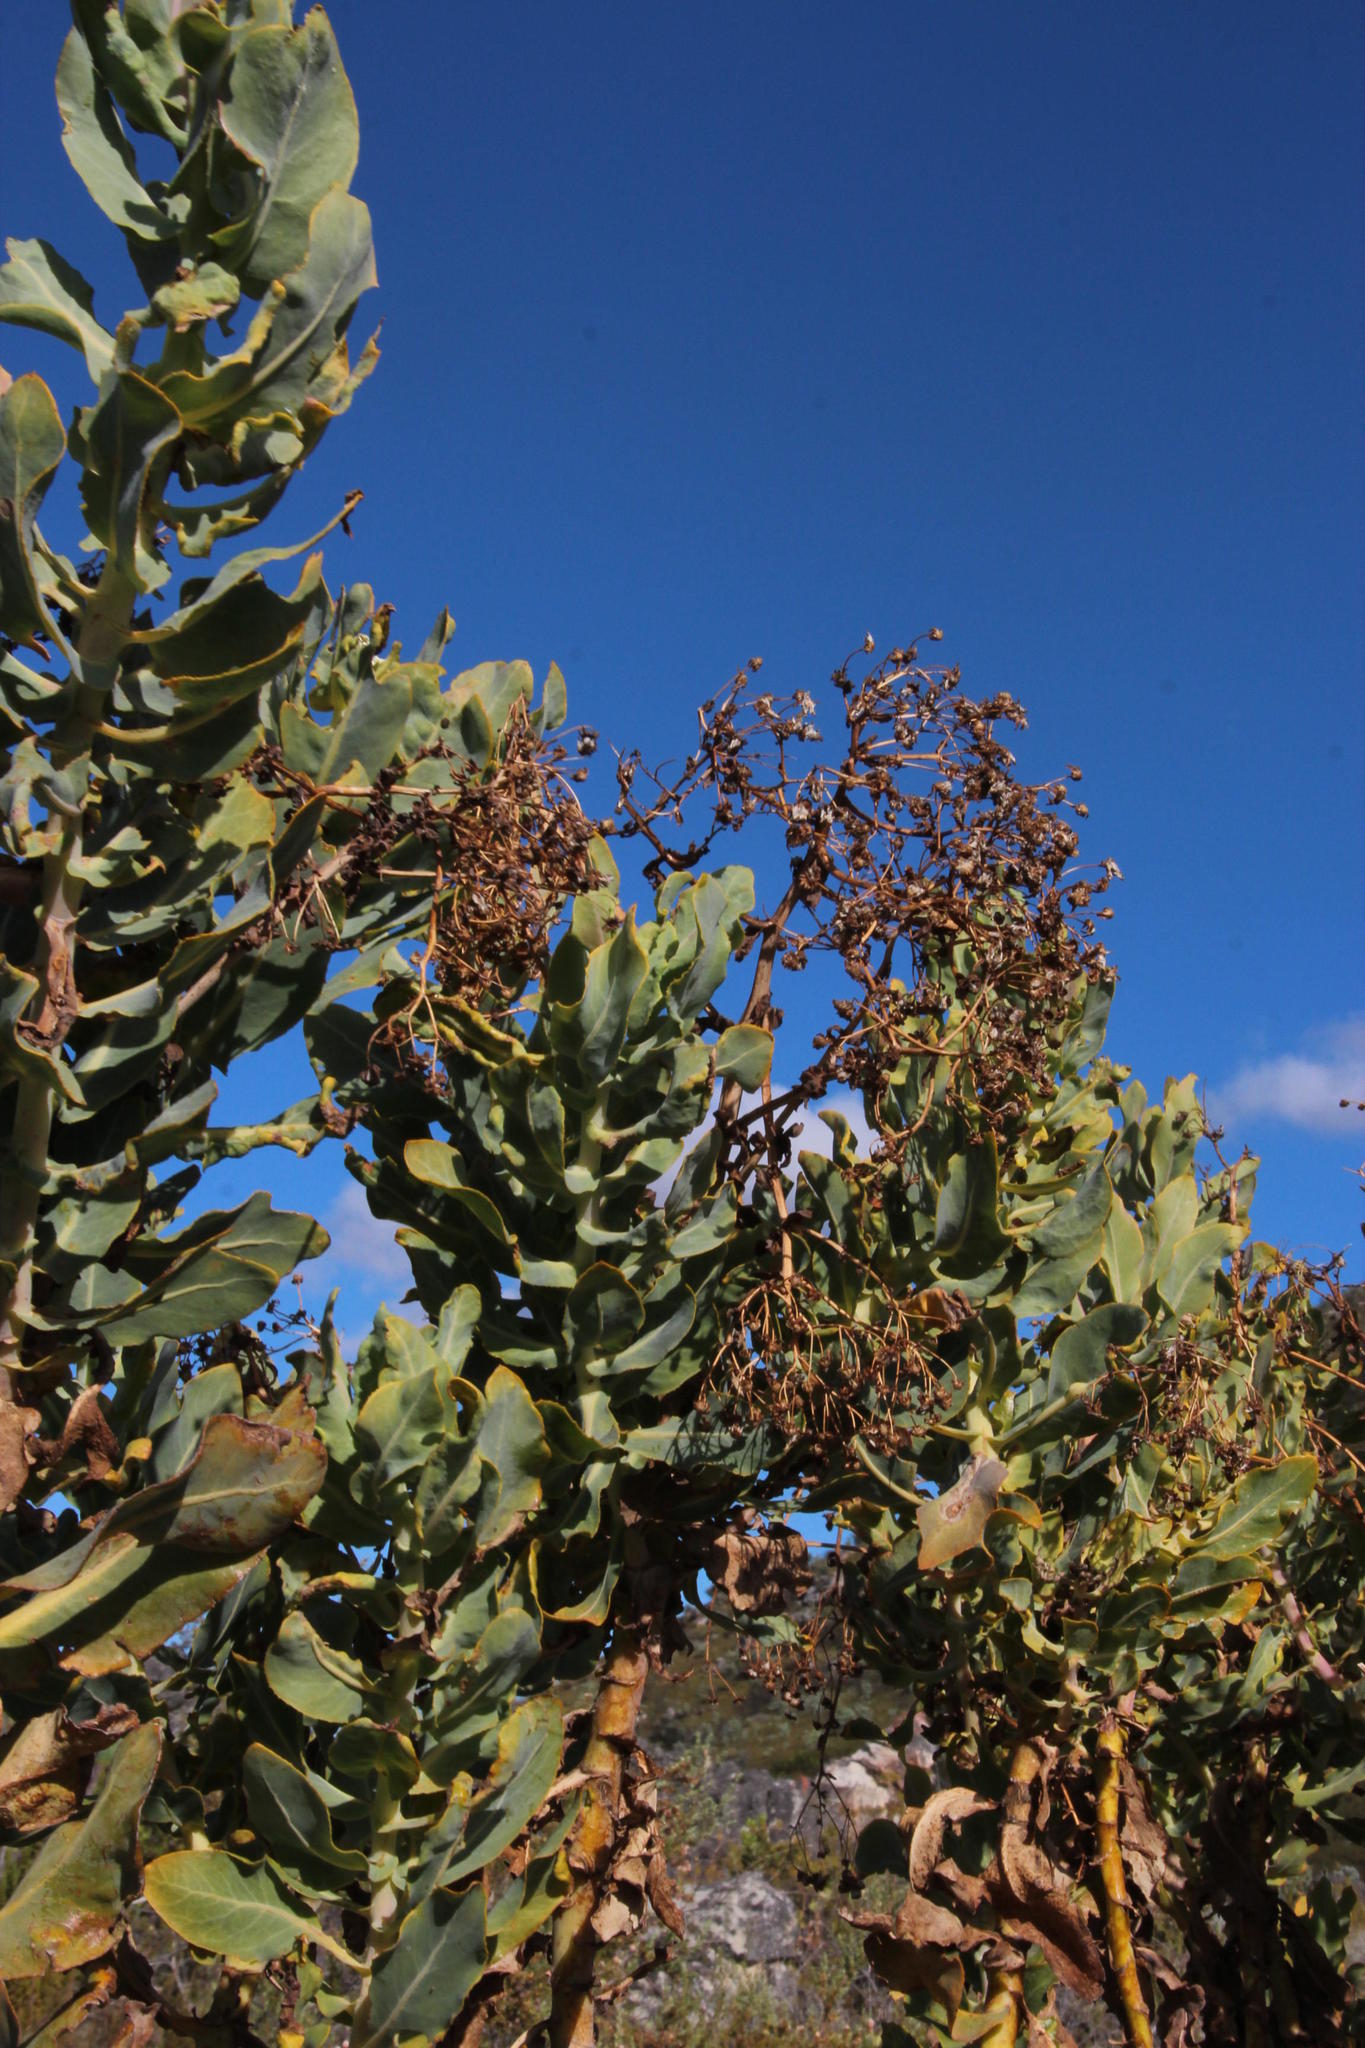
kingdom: Plantae
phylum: Tracheophyta
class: Magnoliopsida
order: Asterales
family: Asteraceae
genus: Othonna
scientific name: Othonna parviflora
